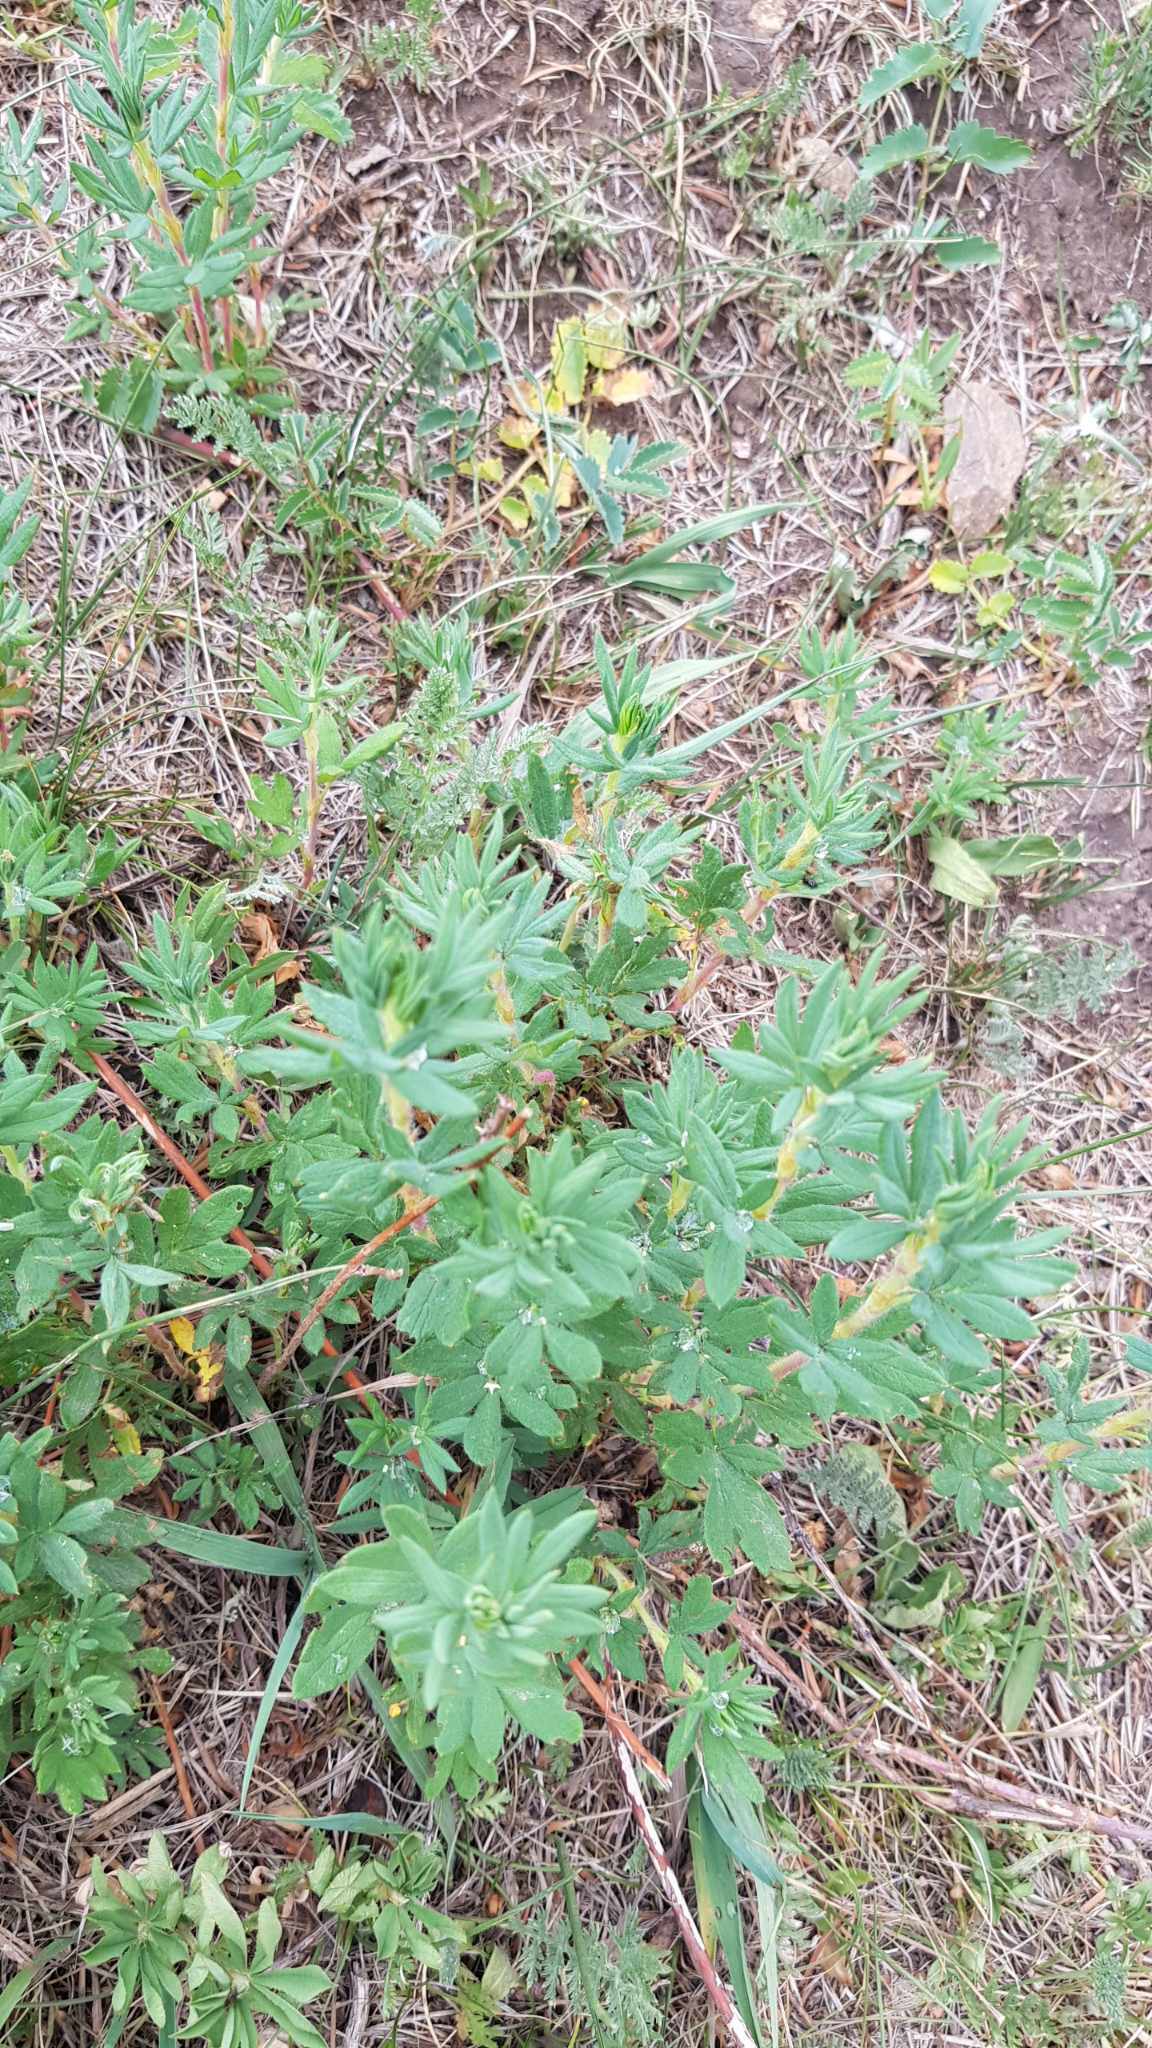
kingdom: Plantae
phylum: Tracheophyta
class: Magnoliopsida
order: Rosales
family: Rosaceae
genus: Dasiphora
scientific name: Dasiphora fruticosa
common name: Shrubby cinquefoil
